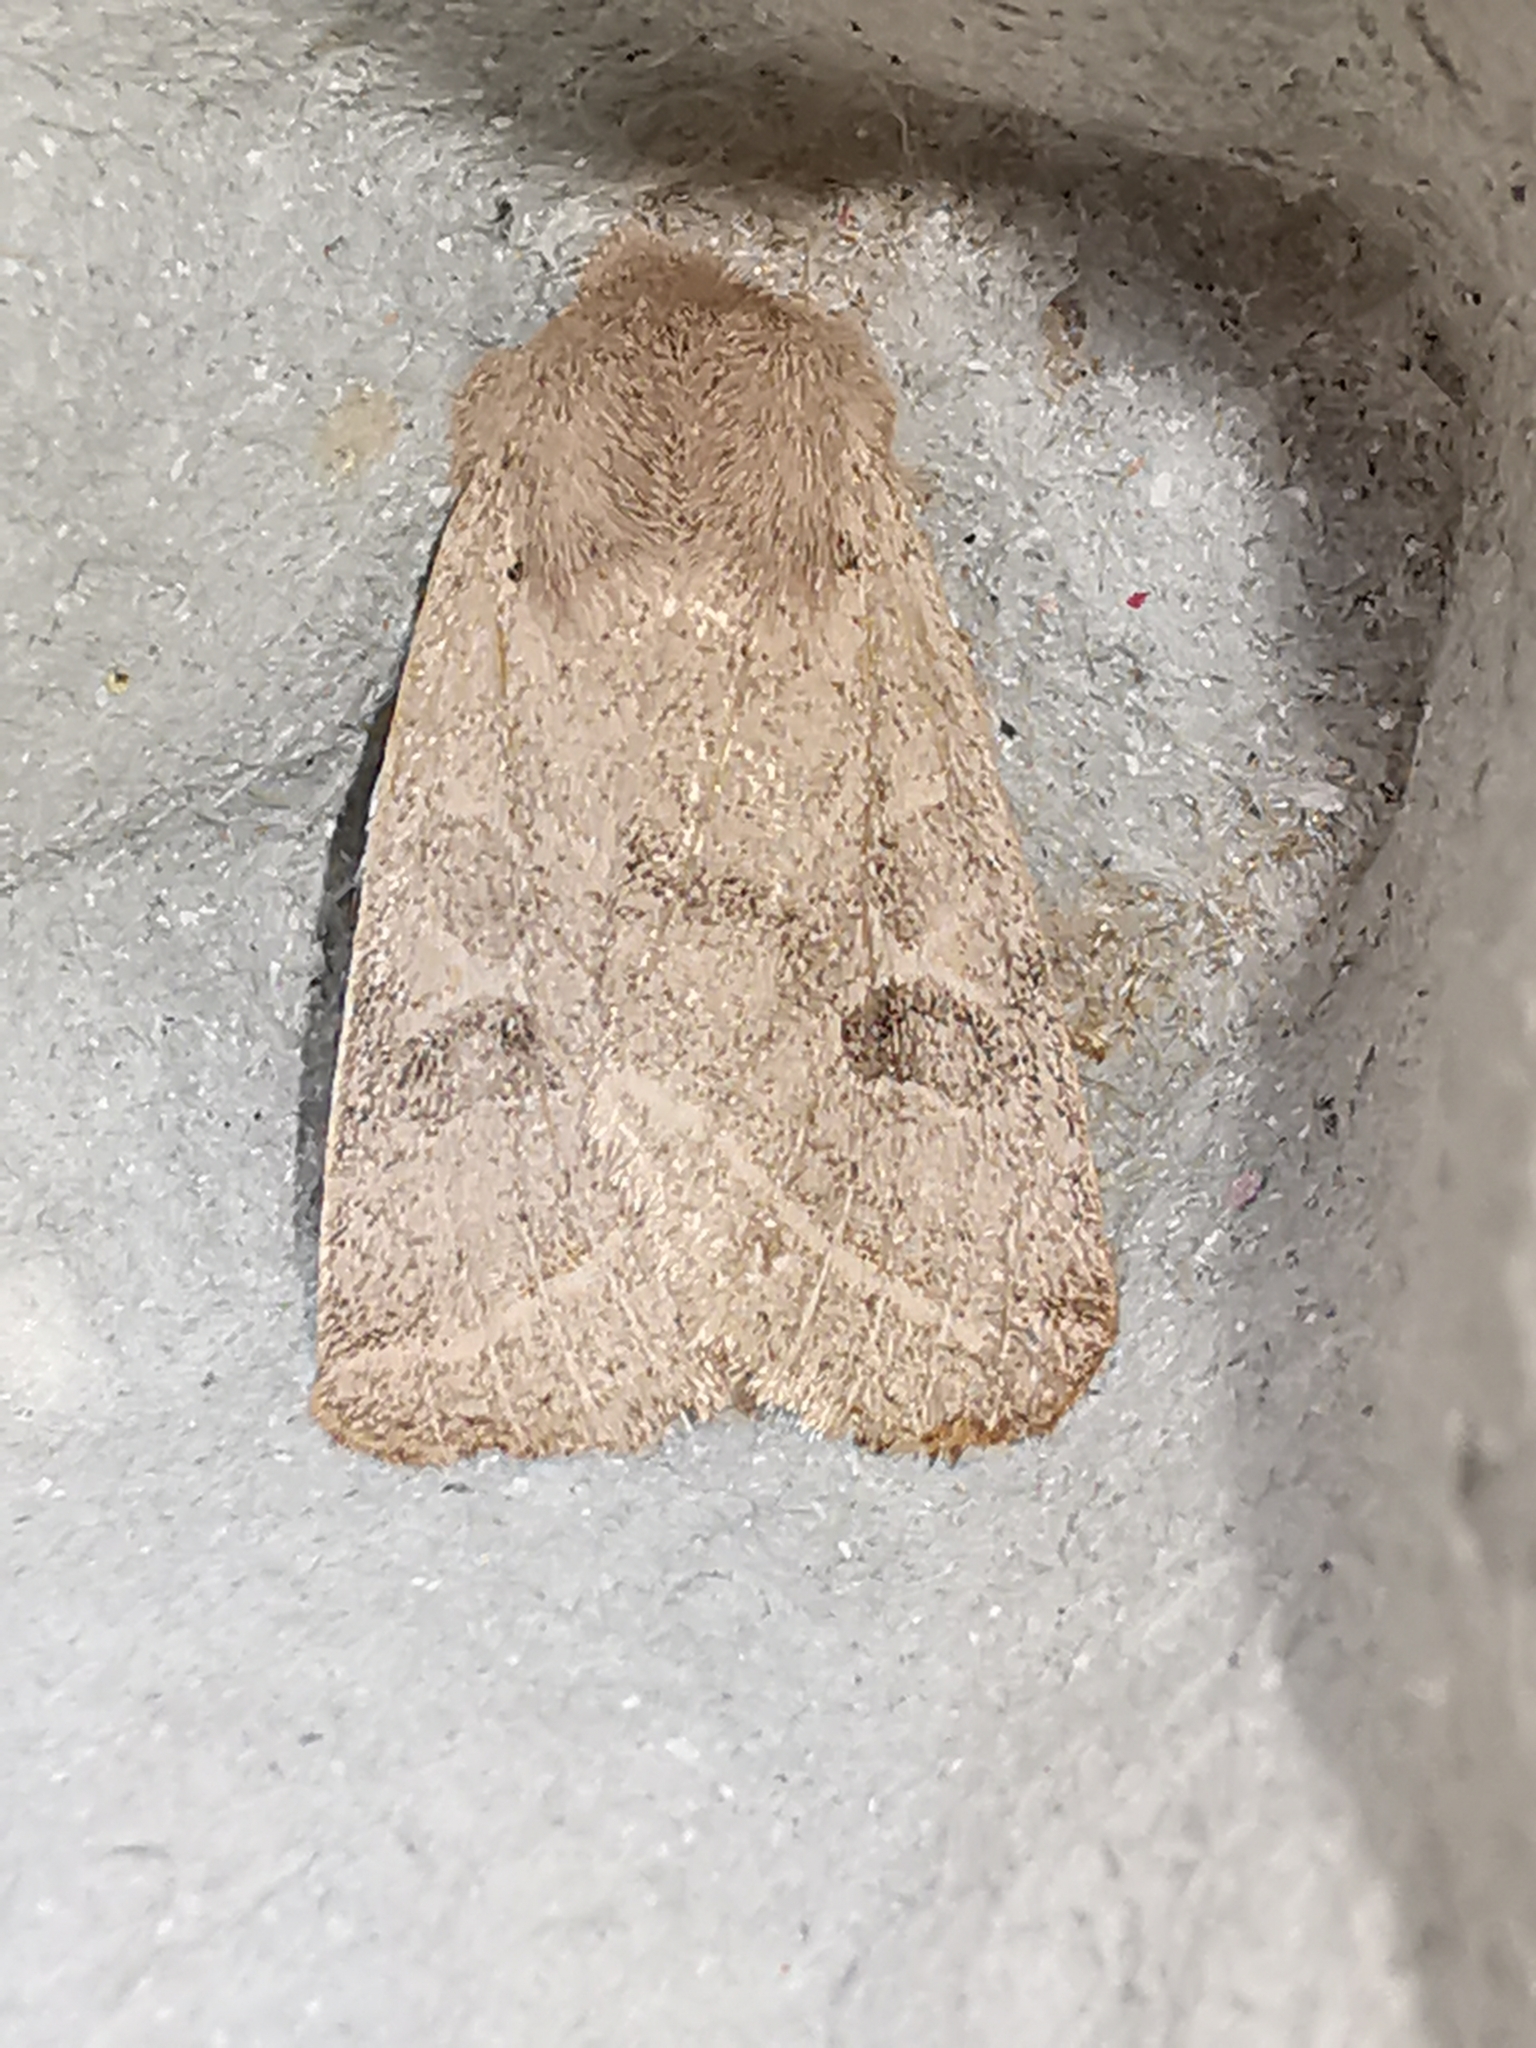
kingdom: Animalia
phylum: Arthropoda
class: Insecta
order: Lepidoptera
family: Noctuidae
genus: Orthosia
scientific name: Orthosia cerasi
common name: Common quaker
